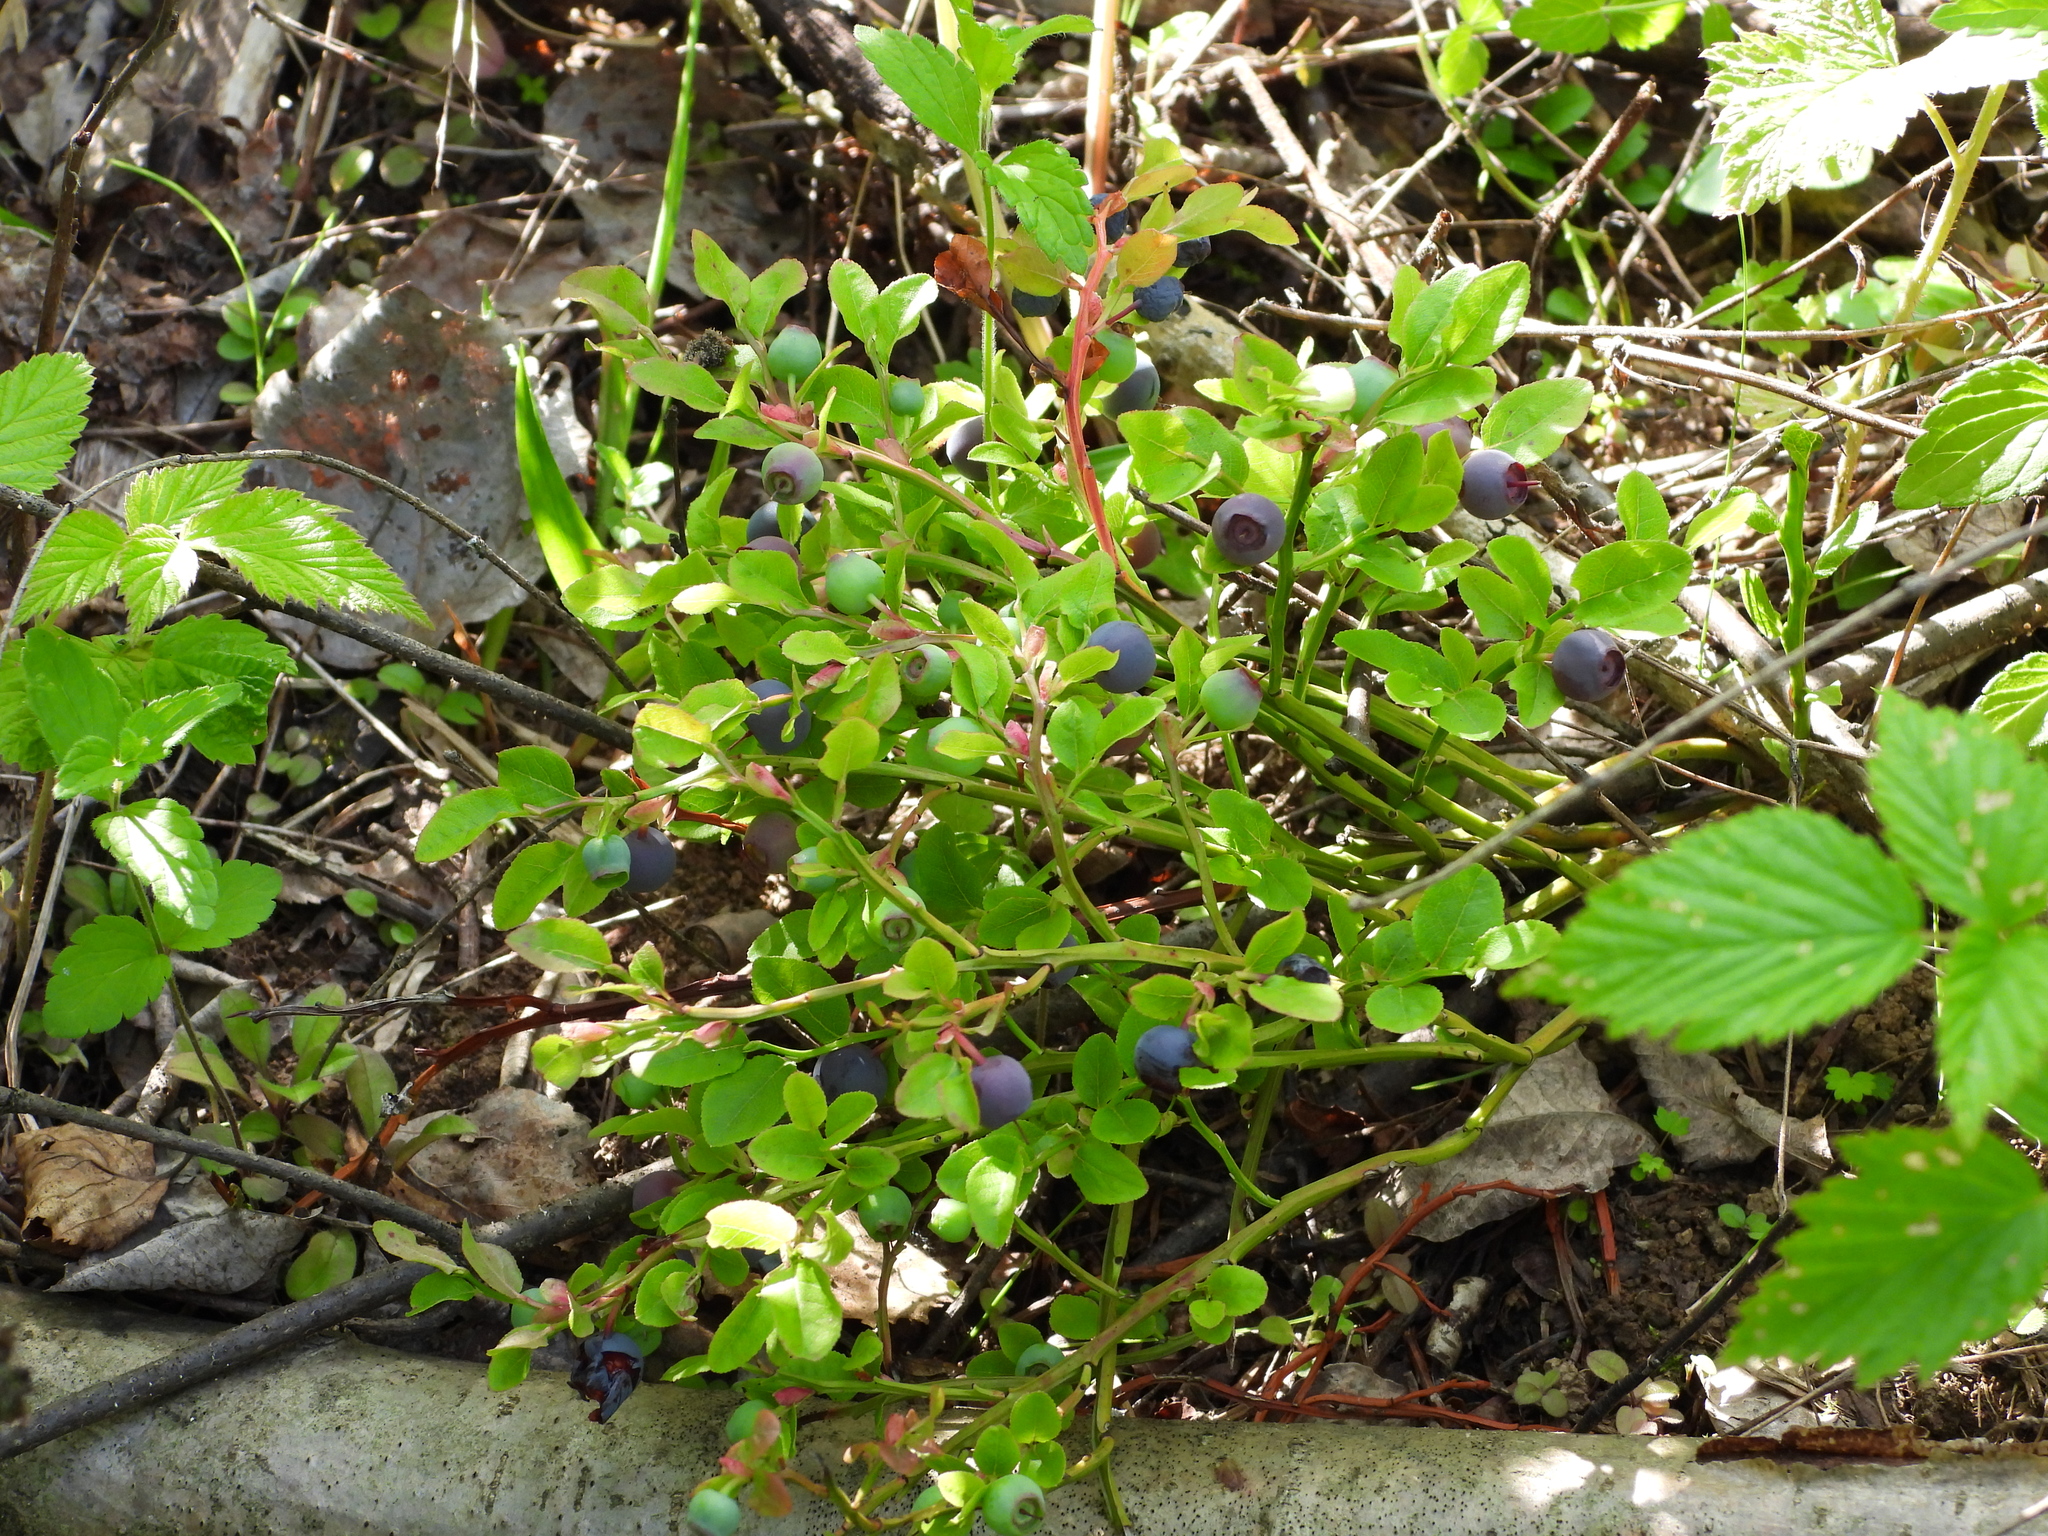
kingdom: Plantae
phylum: Tracheophyta
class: Magnoliopsida
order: Ericales
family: Ericaceae
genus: Vaccinium
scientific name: Vaccinium myrtillus
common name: Bilberry
